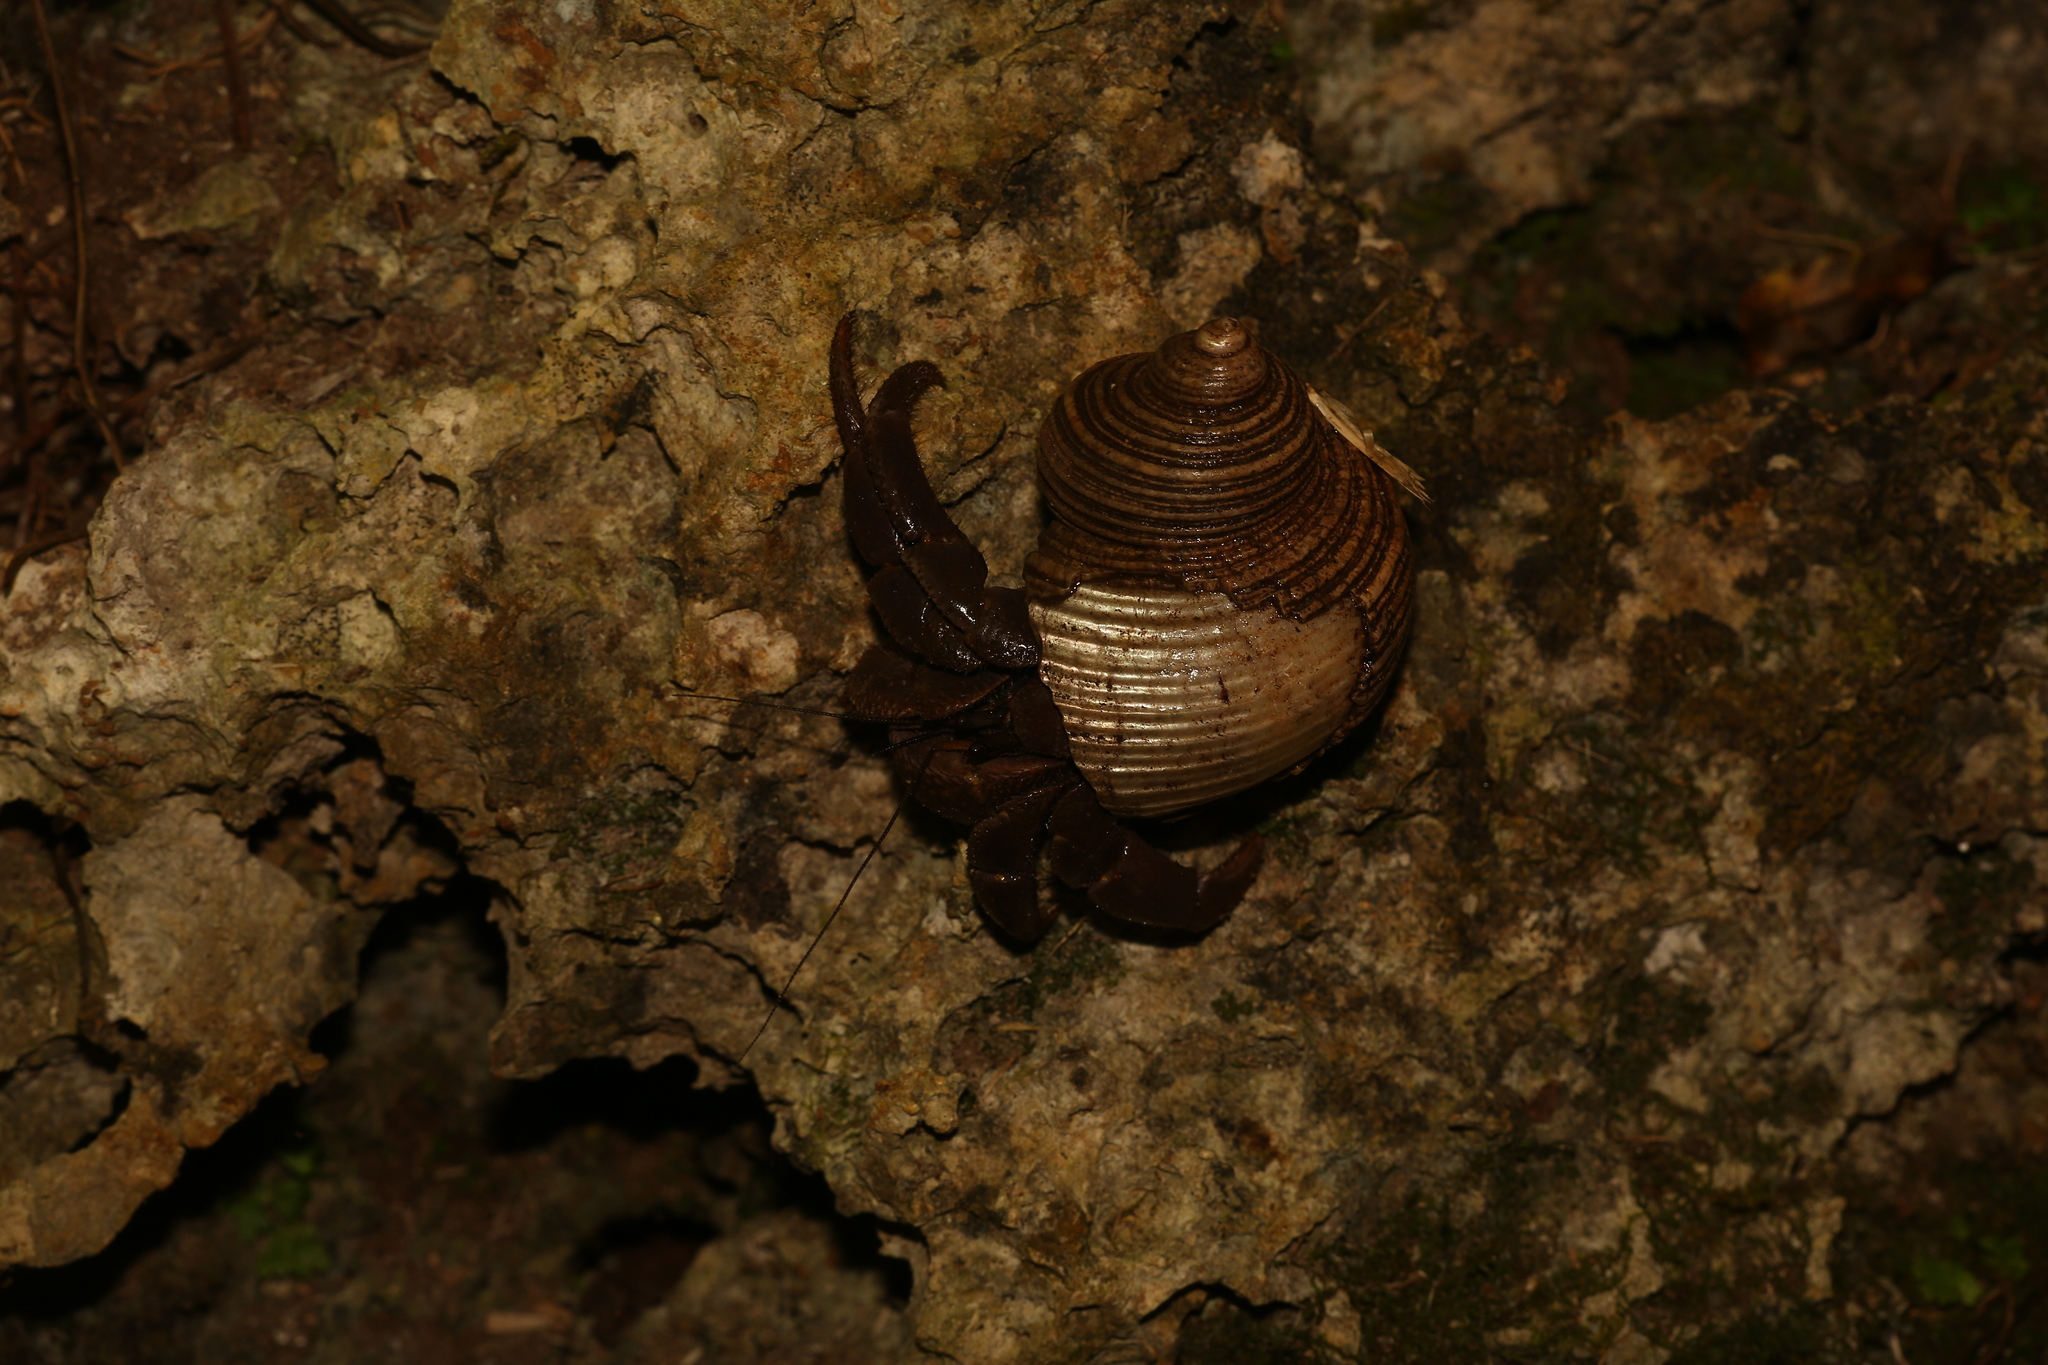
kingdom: Animalia
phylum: Arthropoda
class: Malacostraca
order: Decapoda
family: Coenobitidae
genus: Coenobita
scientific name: Coenobita brevimanus
